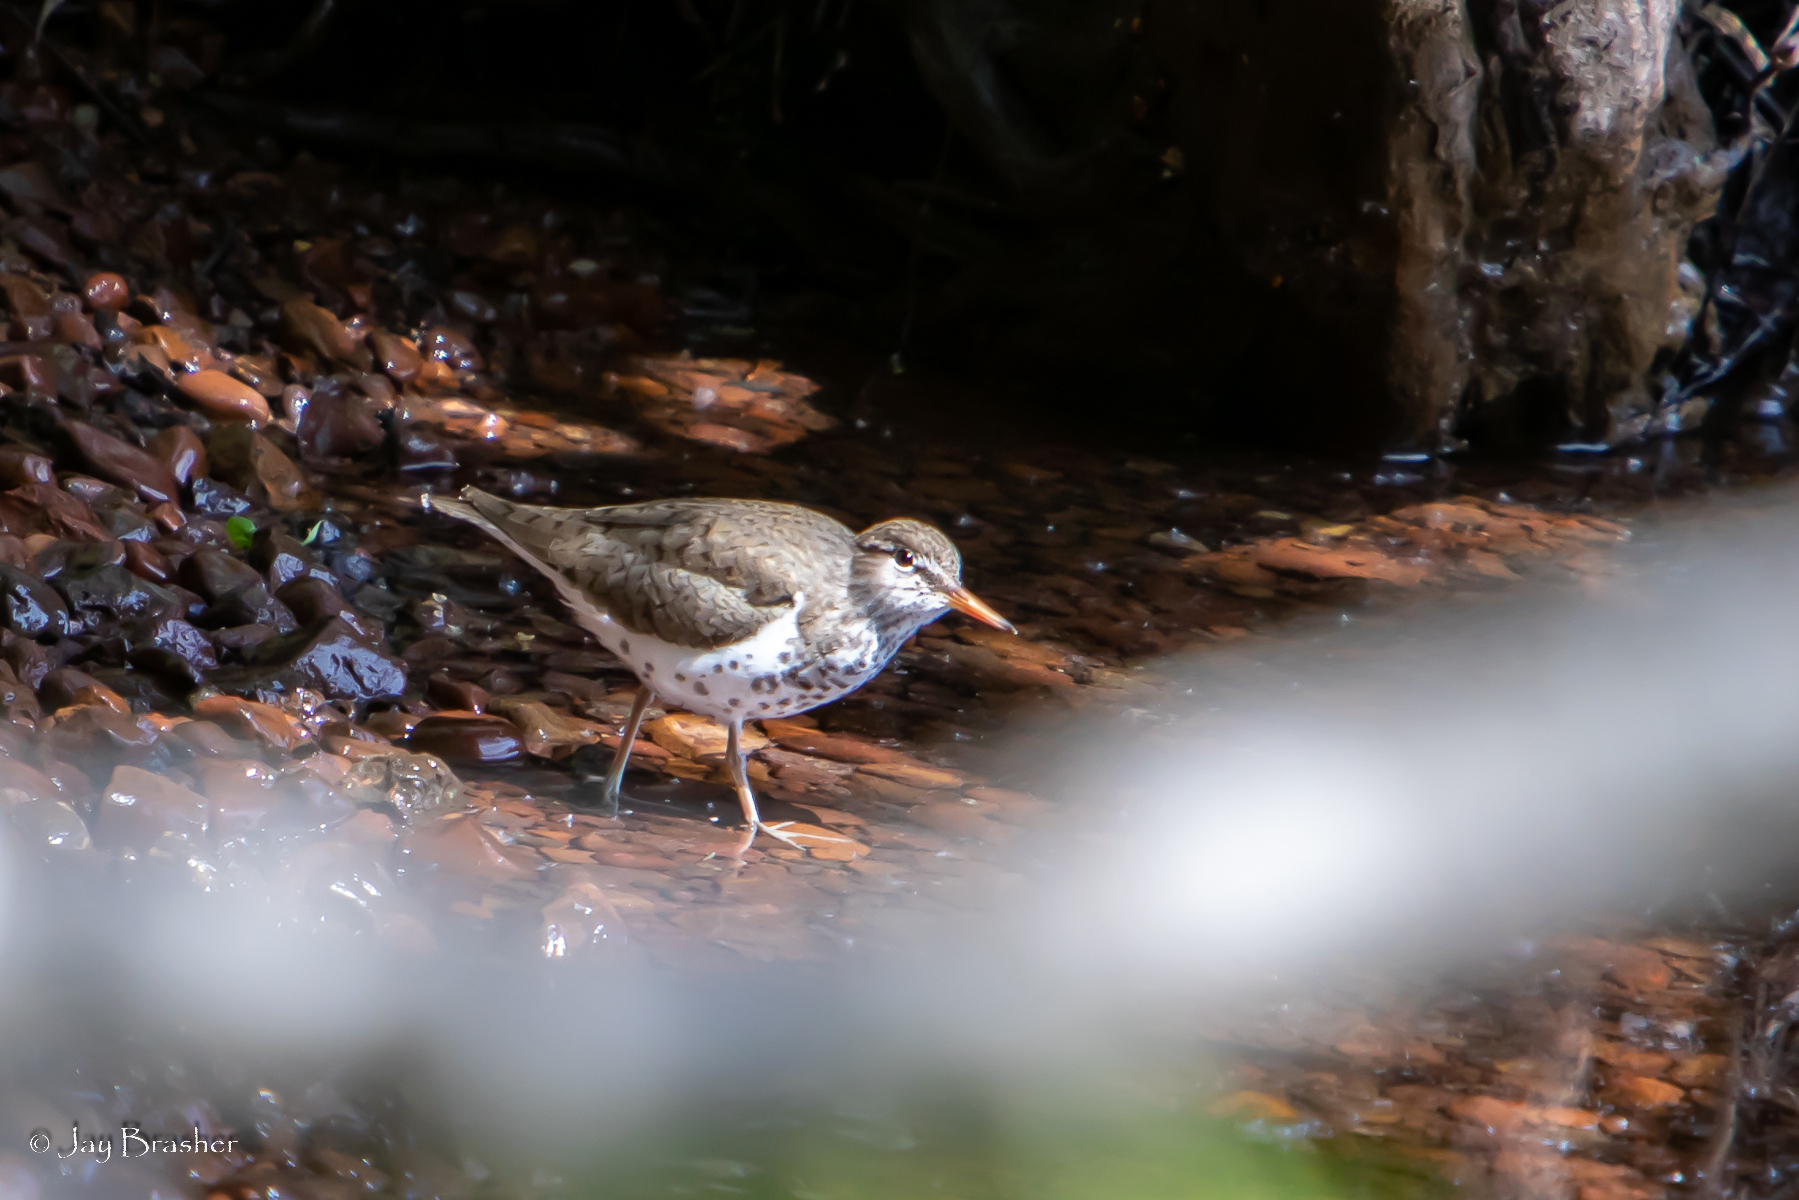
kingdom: Animalia
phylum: Chordata
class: Aves
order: Charadriiformes
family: Scolopacidae
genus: Actitis
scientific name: Actitis macularius
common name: Spotted sandpiper
